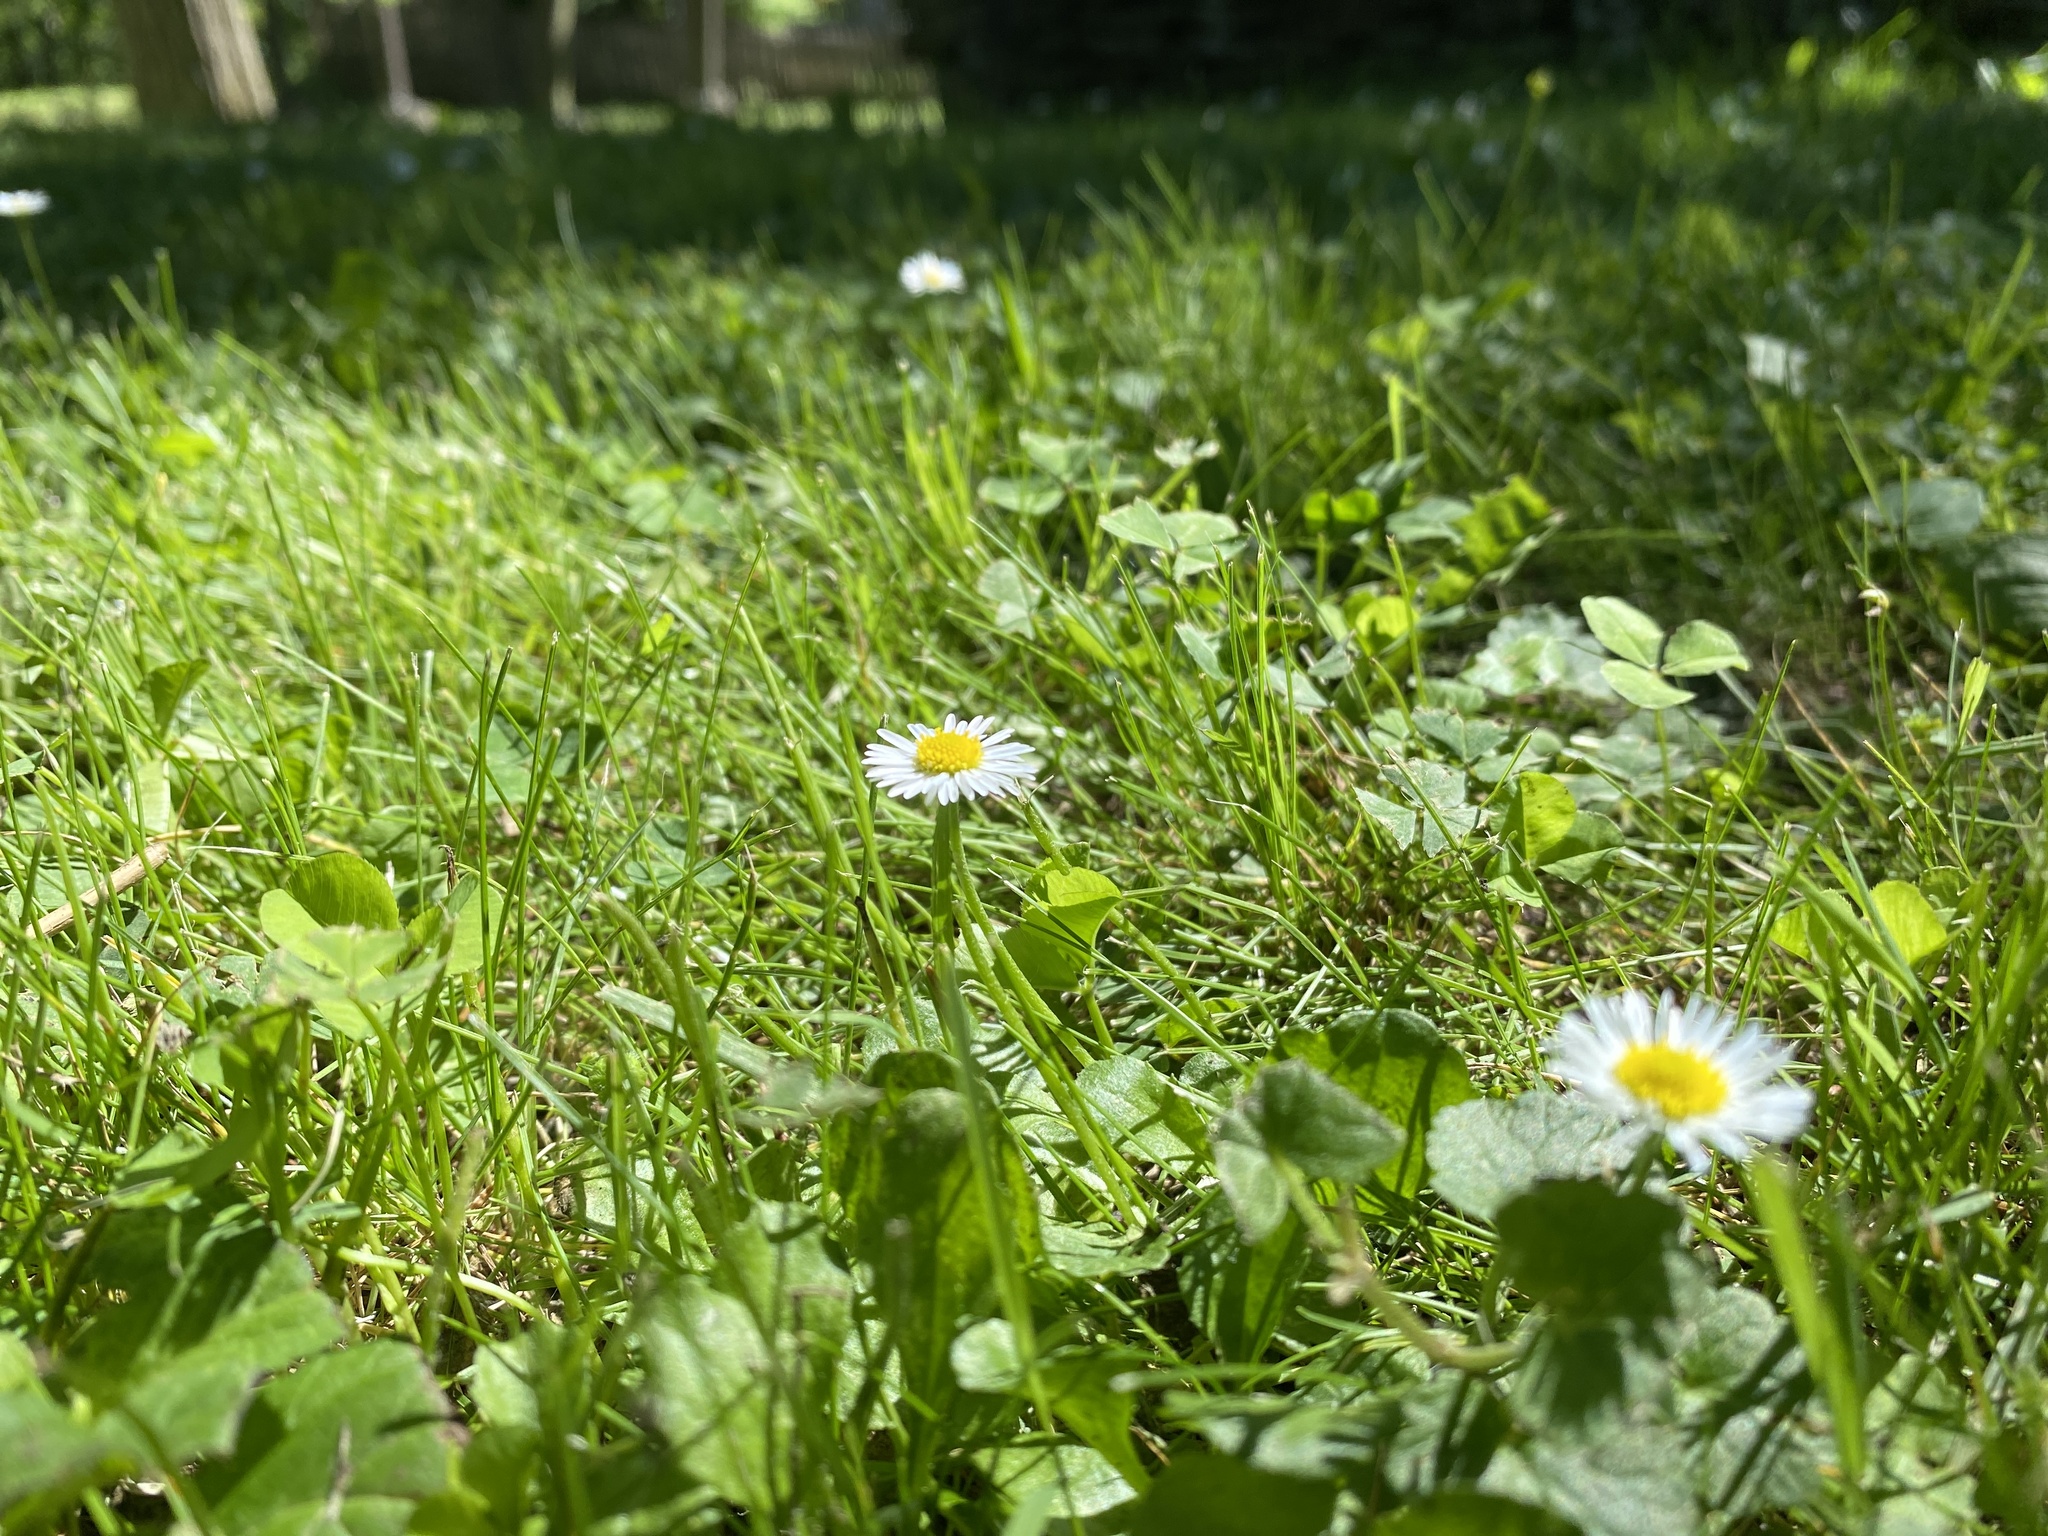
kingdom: Plantae
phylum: Tracheophyta
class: Magnoliopsida
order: Asterales
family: Asteraceae
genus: Bellis
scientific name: Bellis perennis
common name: Lawndaisy
